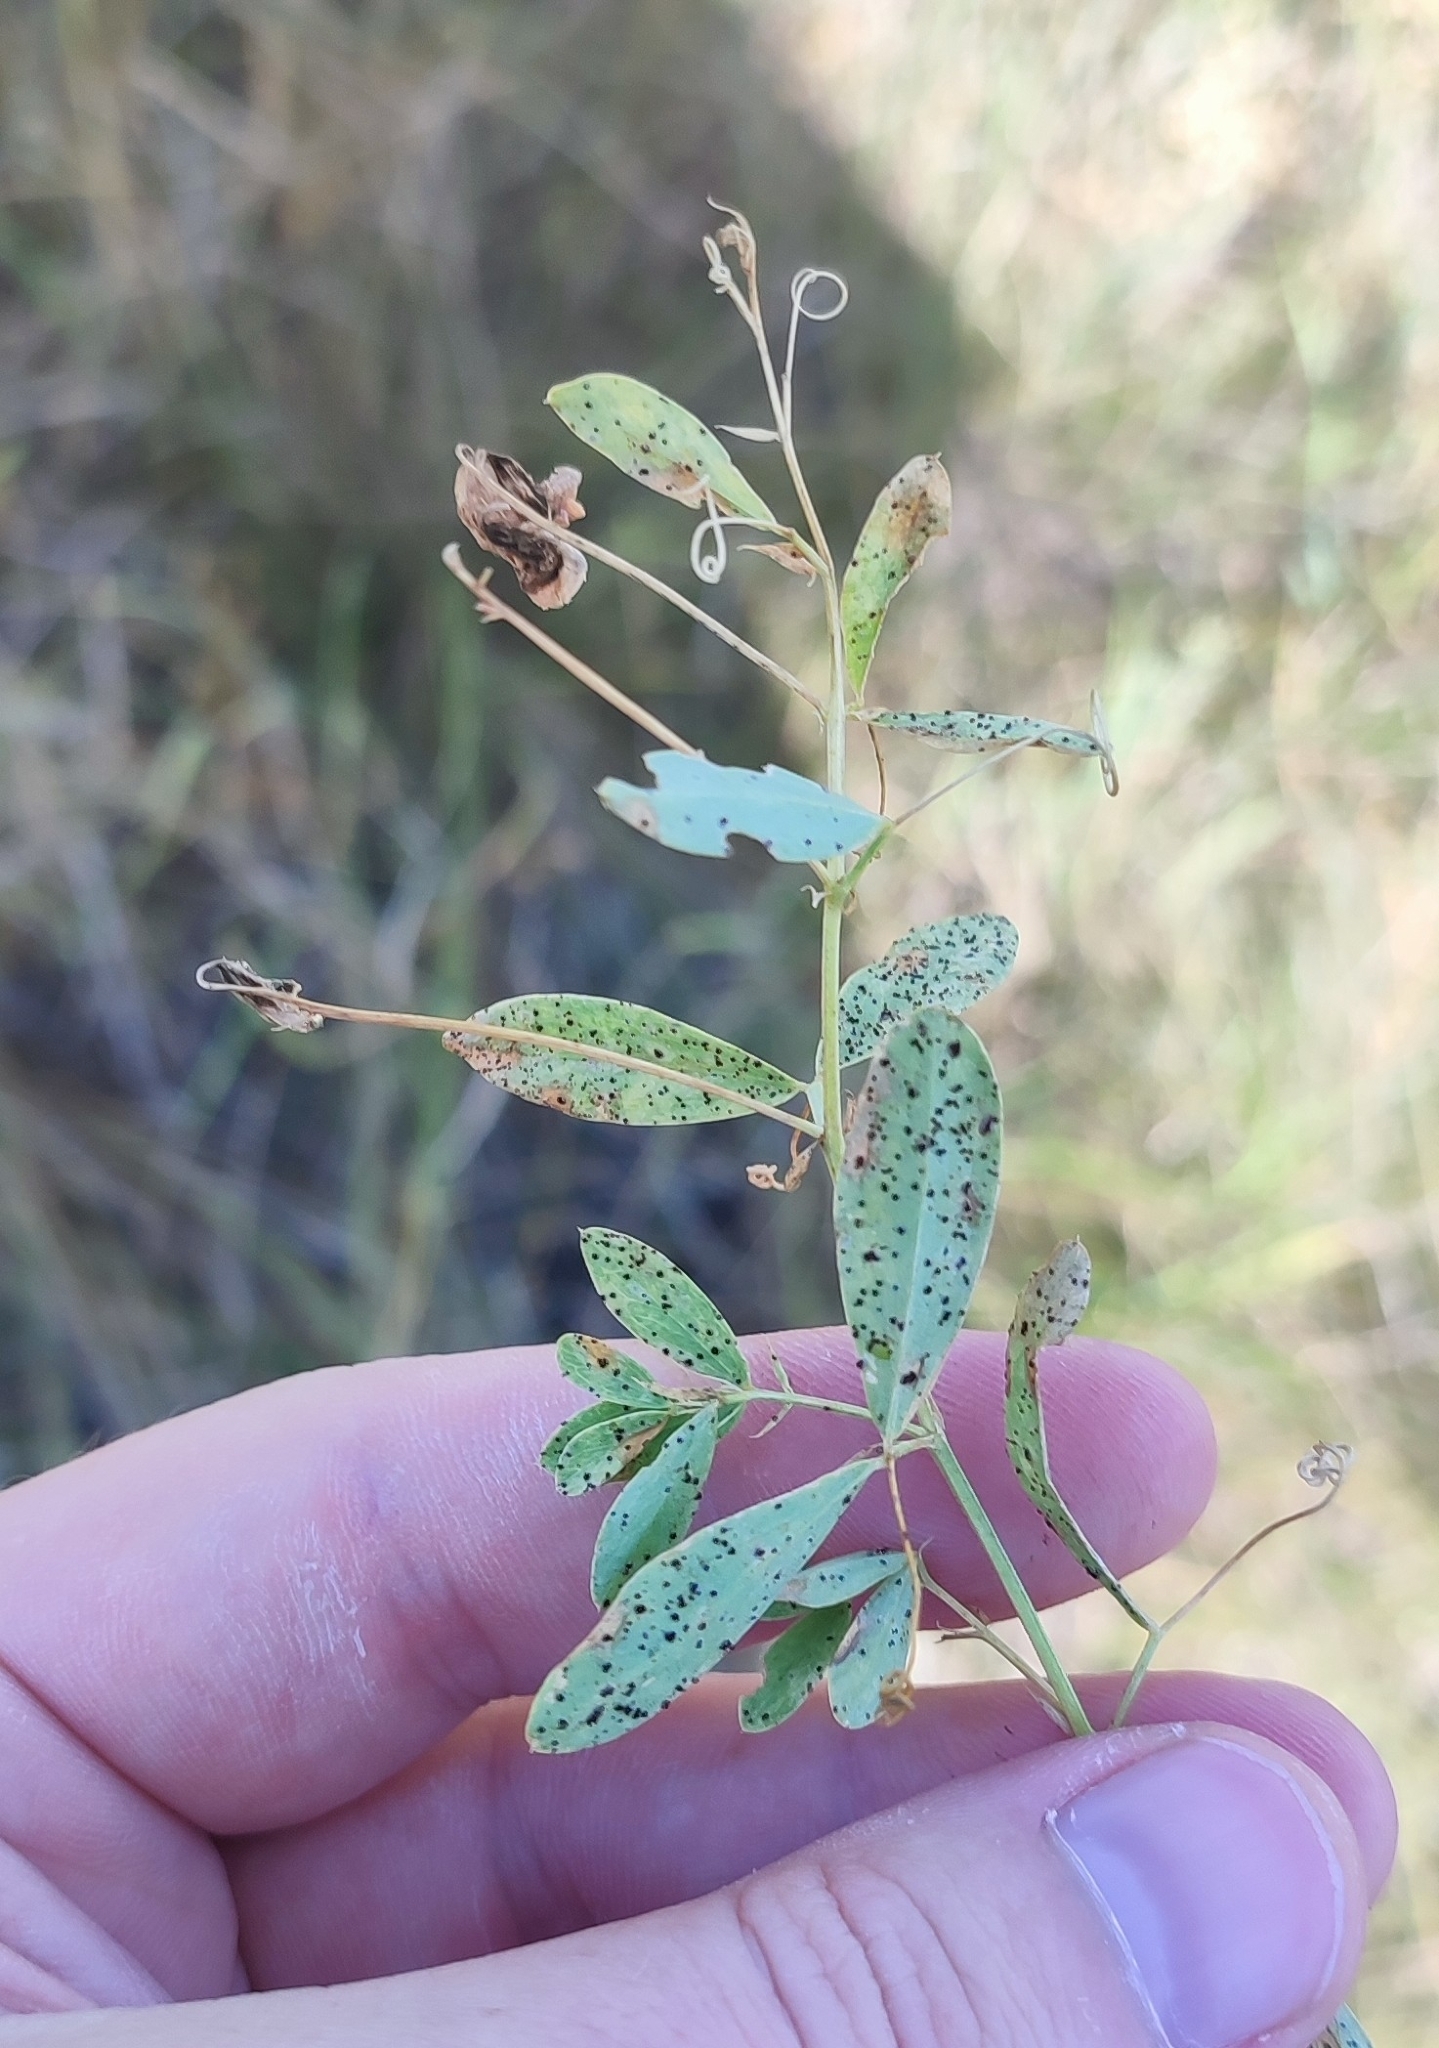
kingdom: Plantae
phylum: Tracheophyta
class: Magnoliopsida
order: Fabales
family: Fabaceae
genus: Lathyrus
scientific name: Lathyrus tuberosus
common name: Tuberous pea
